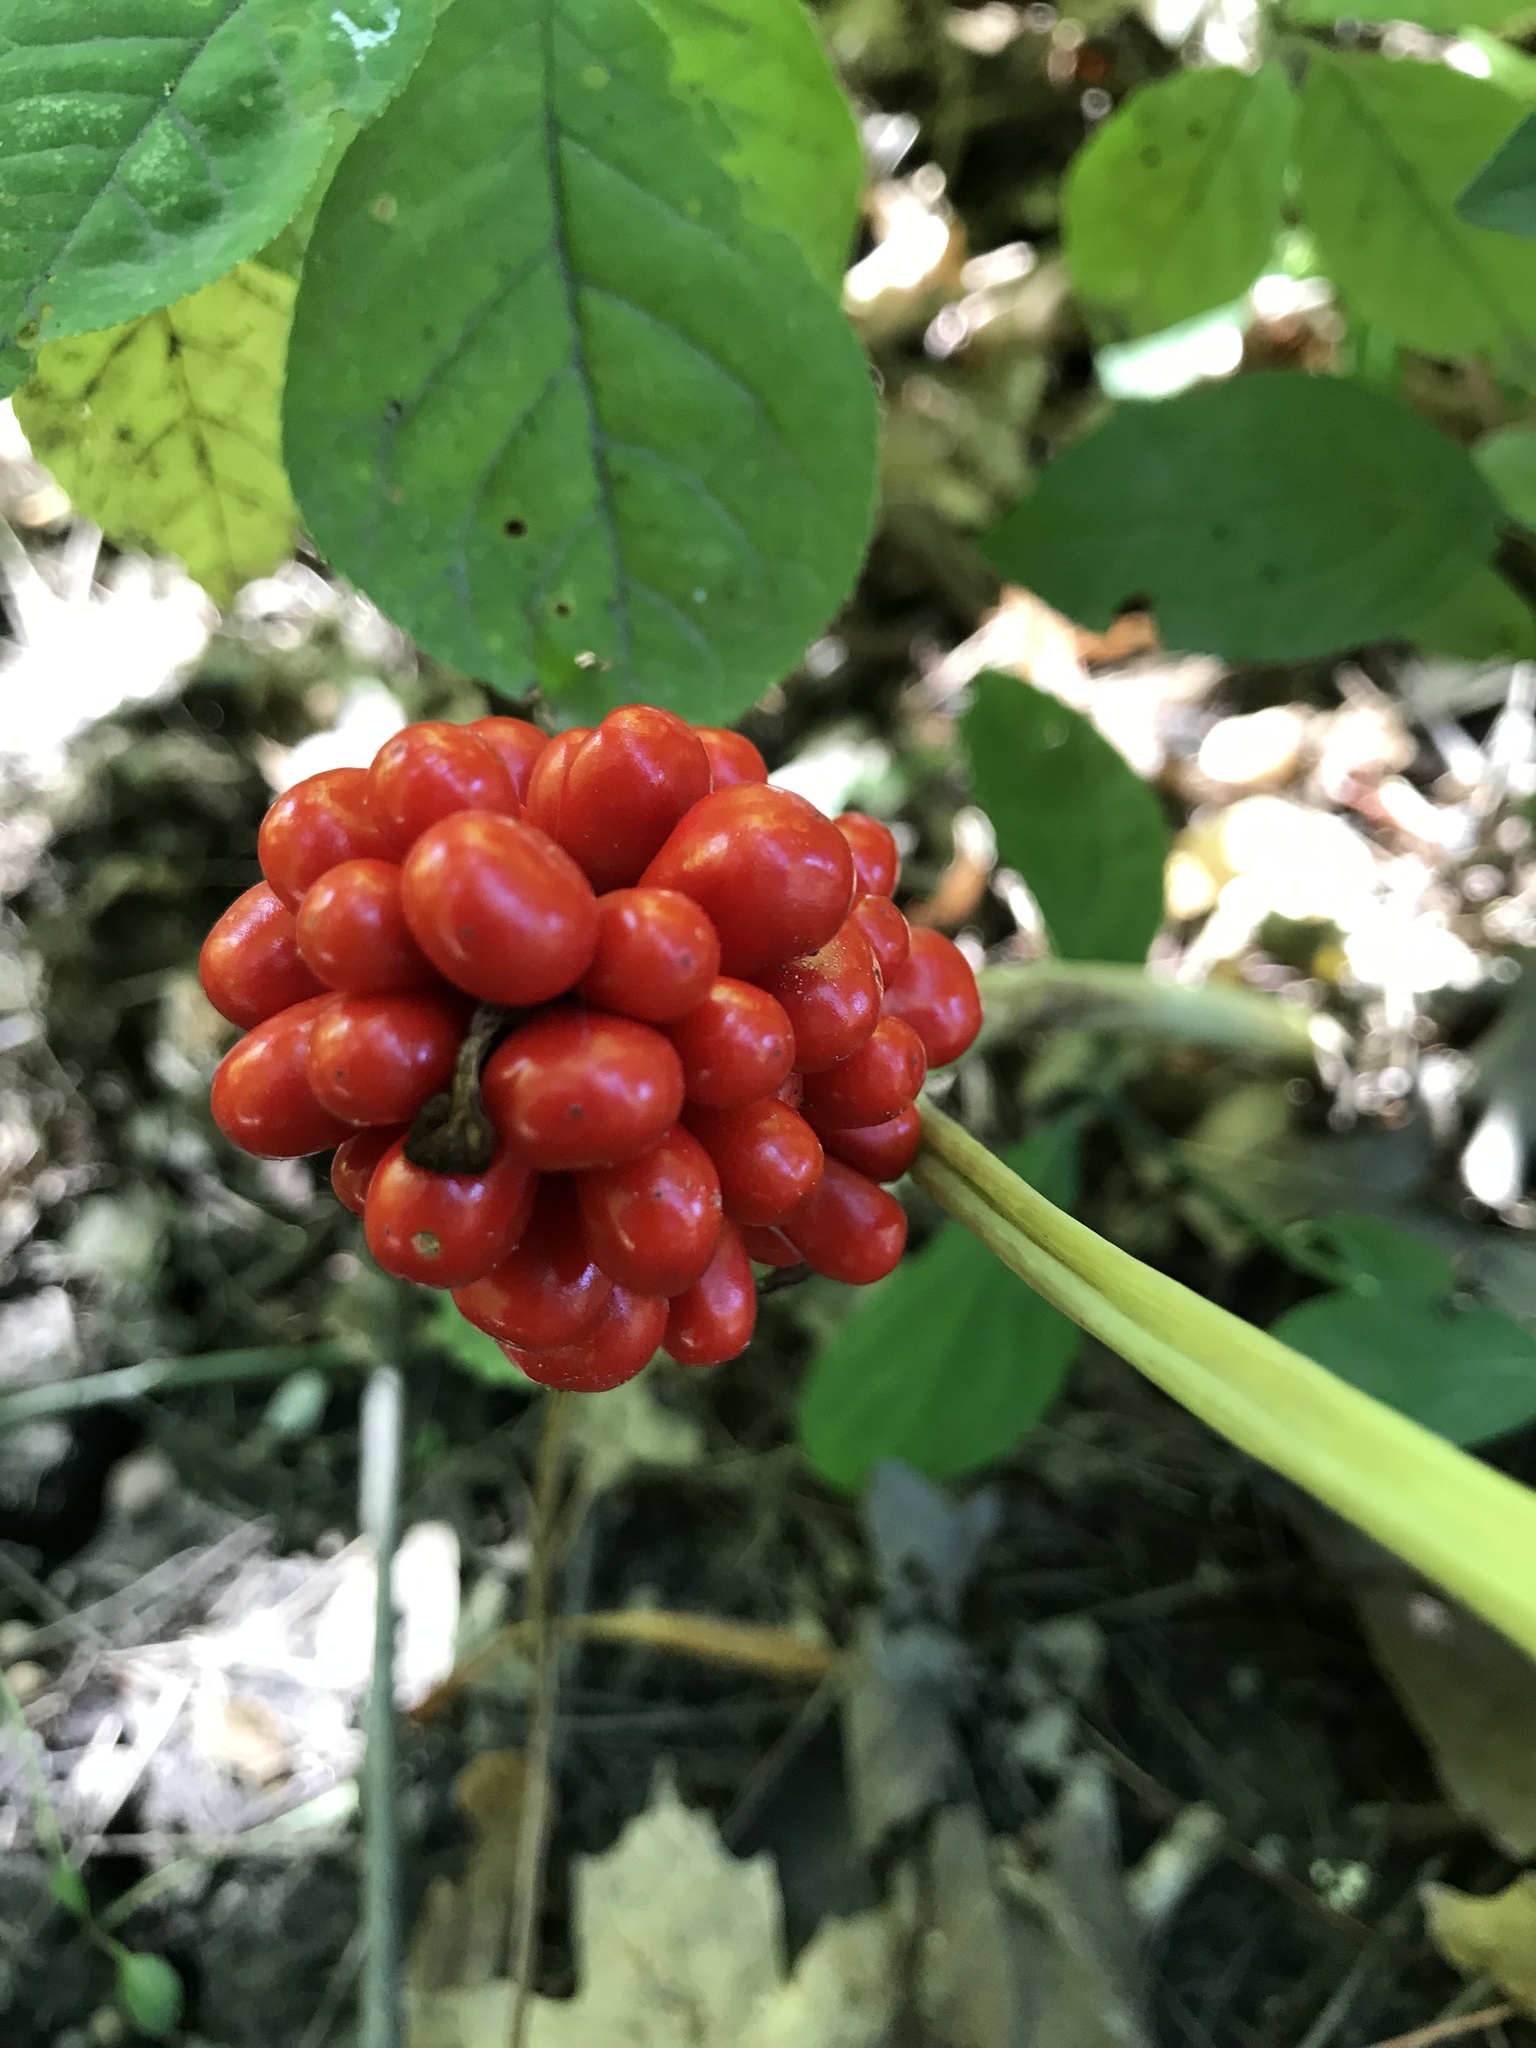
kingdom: Plantae
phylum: Tracheophyta
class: Liliopsida
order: Alismatales
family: Araceae
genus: Arisaema
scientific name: Arisaema triphyllum
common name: Jack-in-the-pulpit
